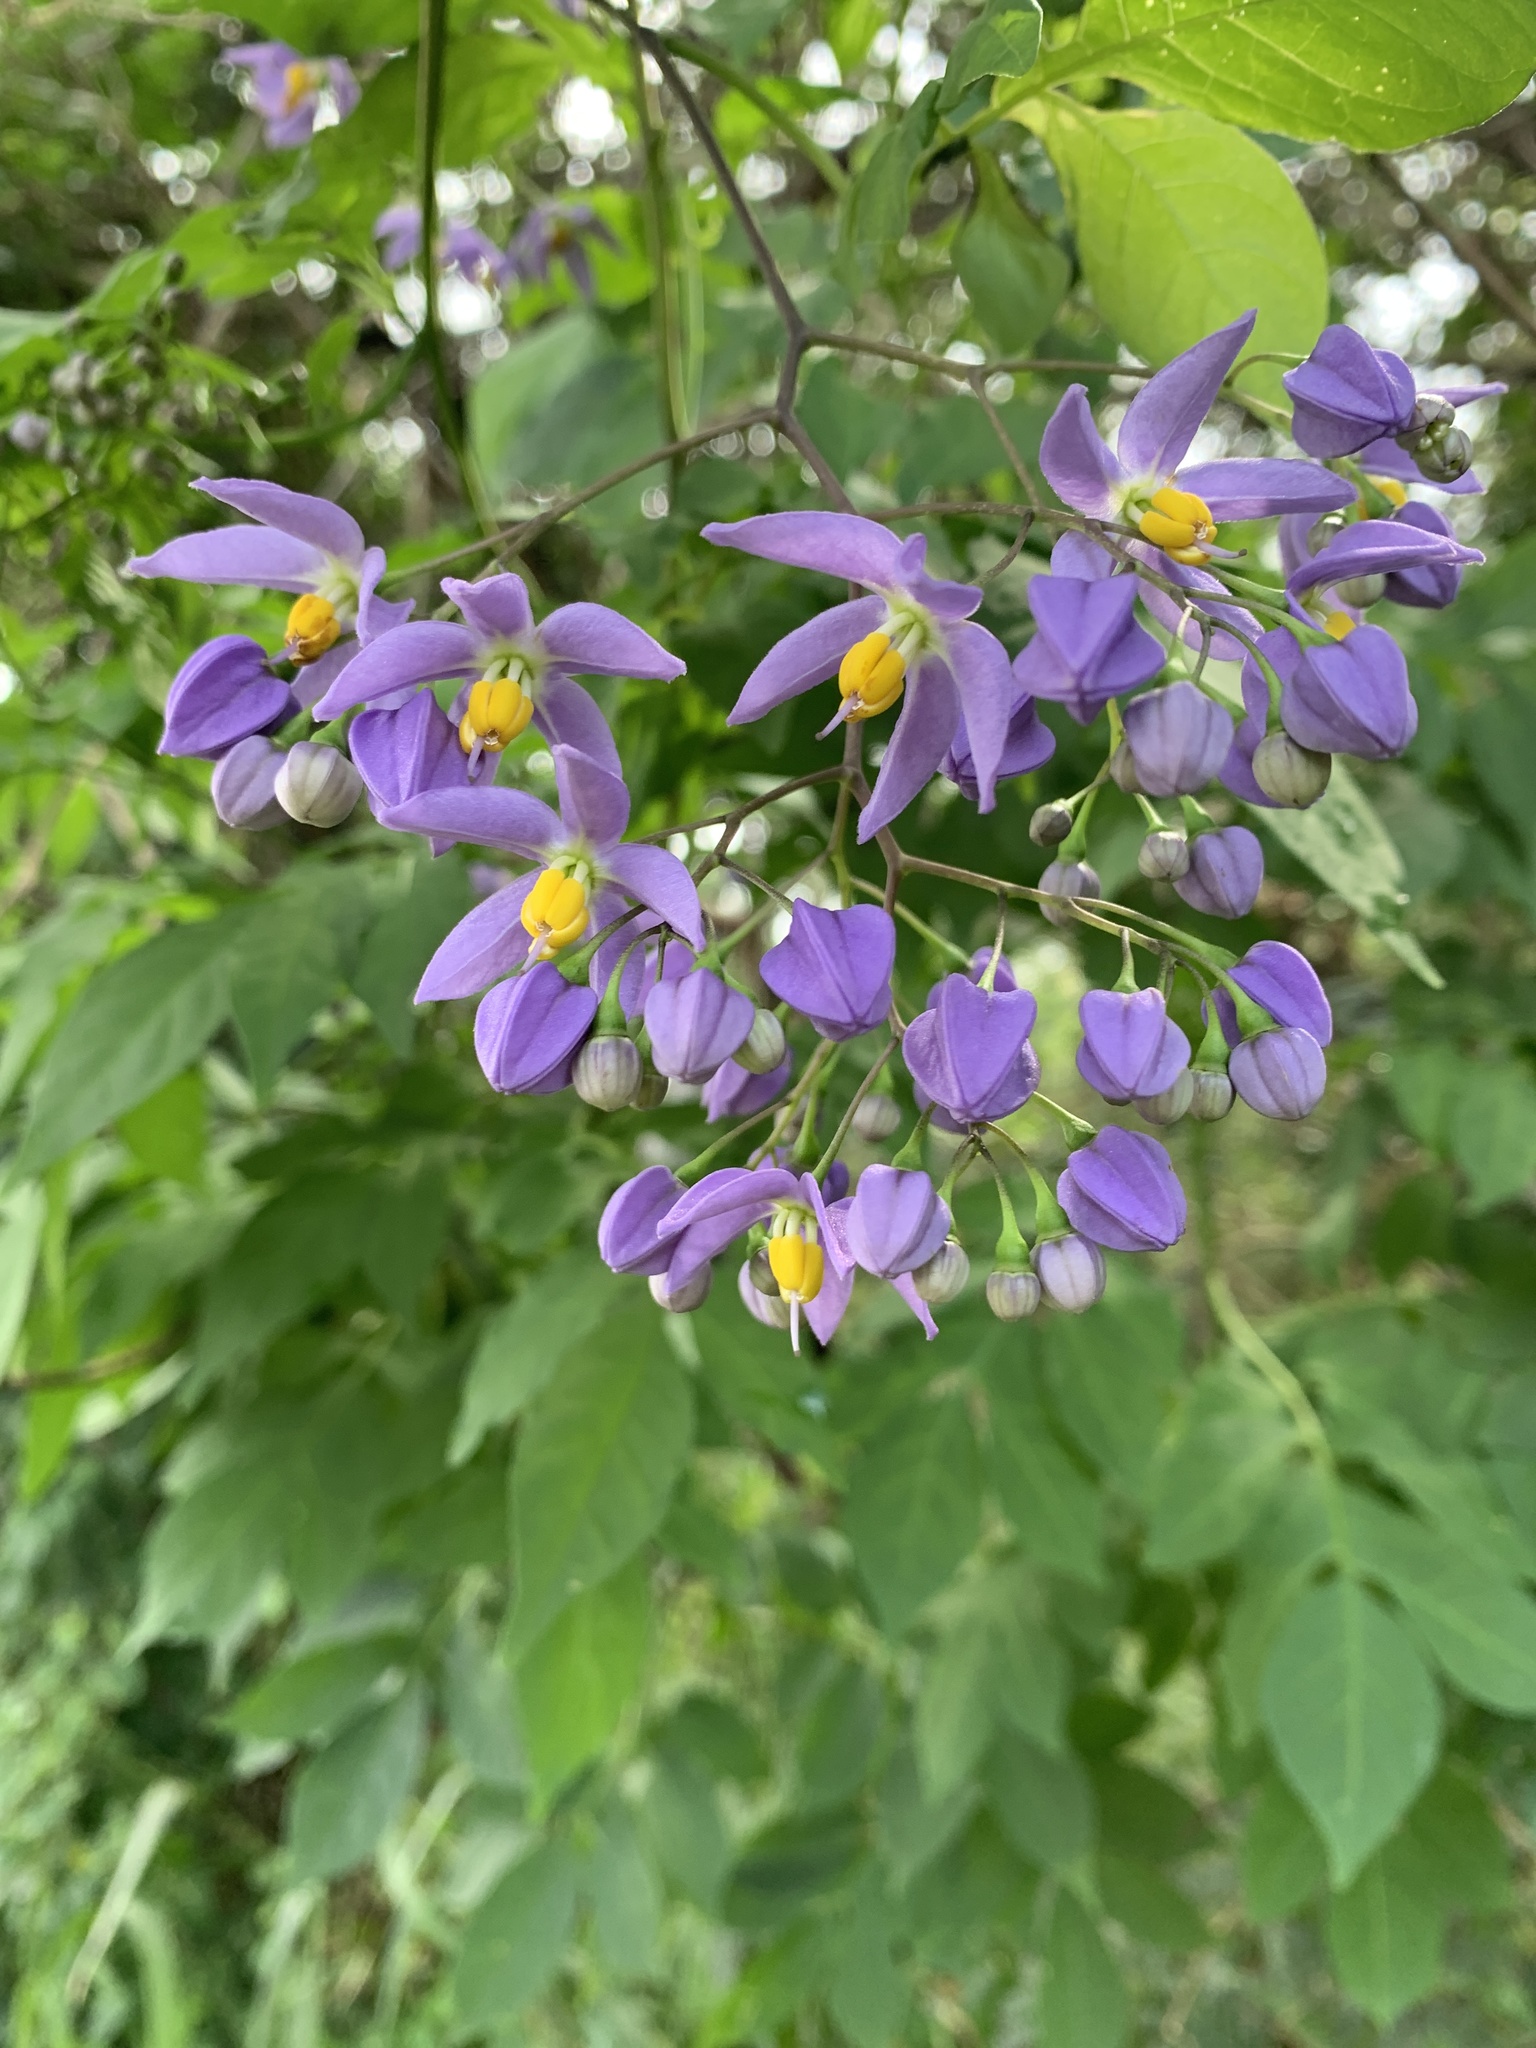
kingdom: Plantae
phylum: Tracheophyta
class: Magnoliopsida
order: Solanales
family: Solanaceae
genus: Solanum
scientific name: Solanum seaforthianum
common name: Brazilian nightshade
